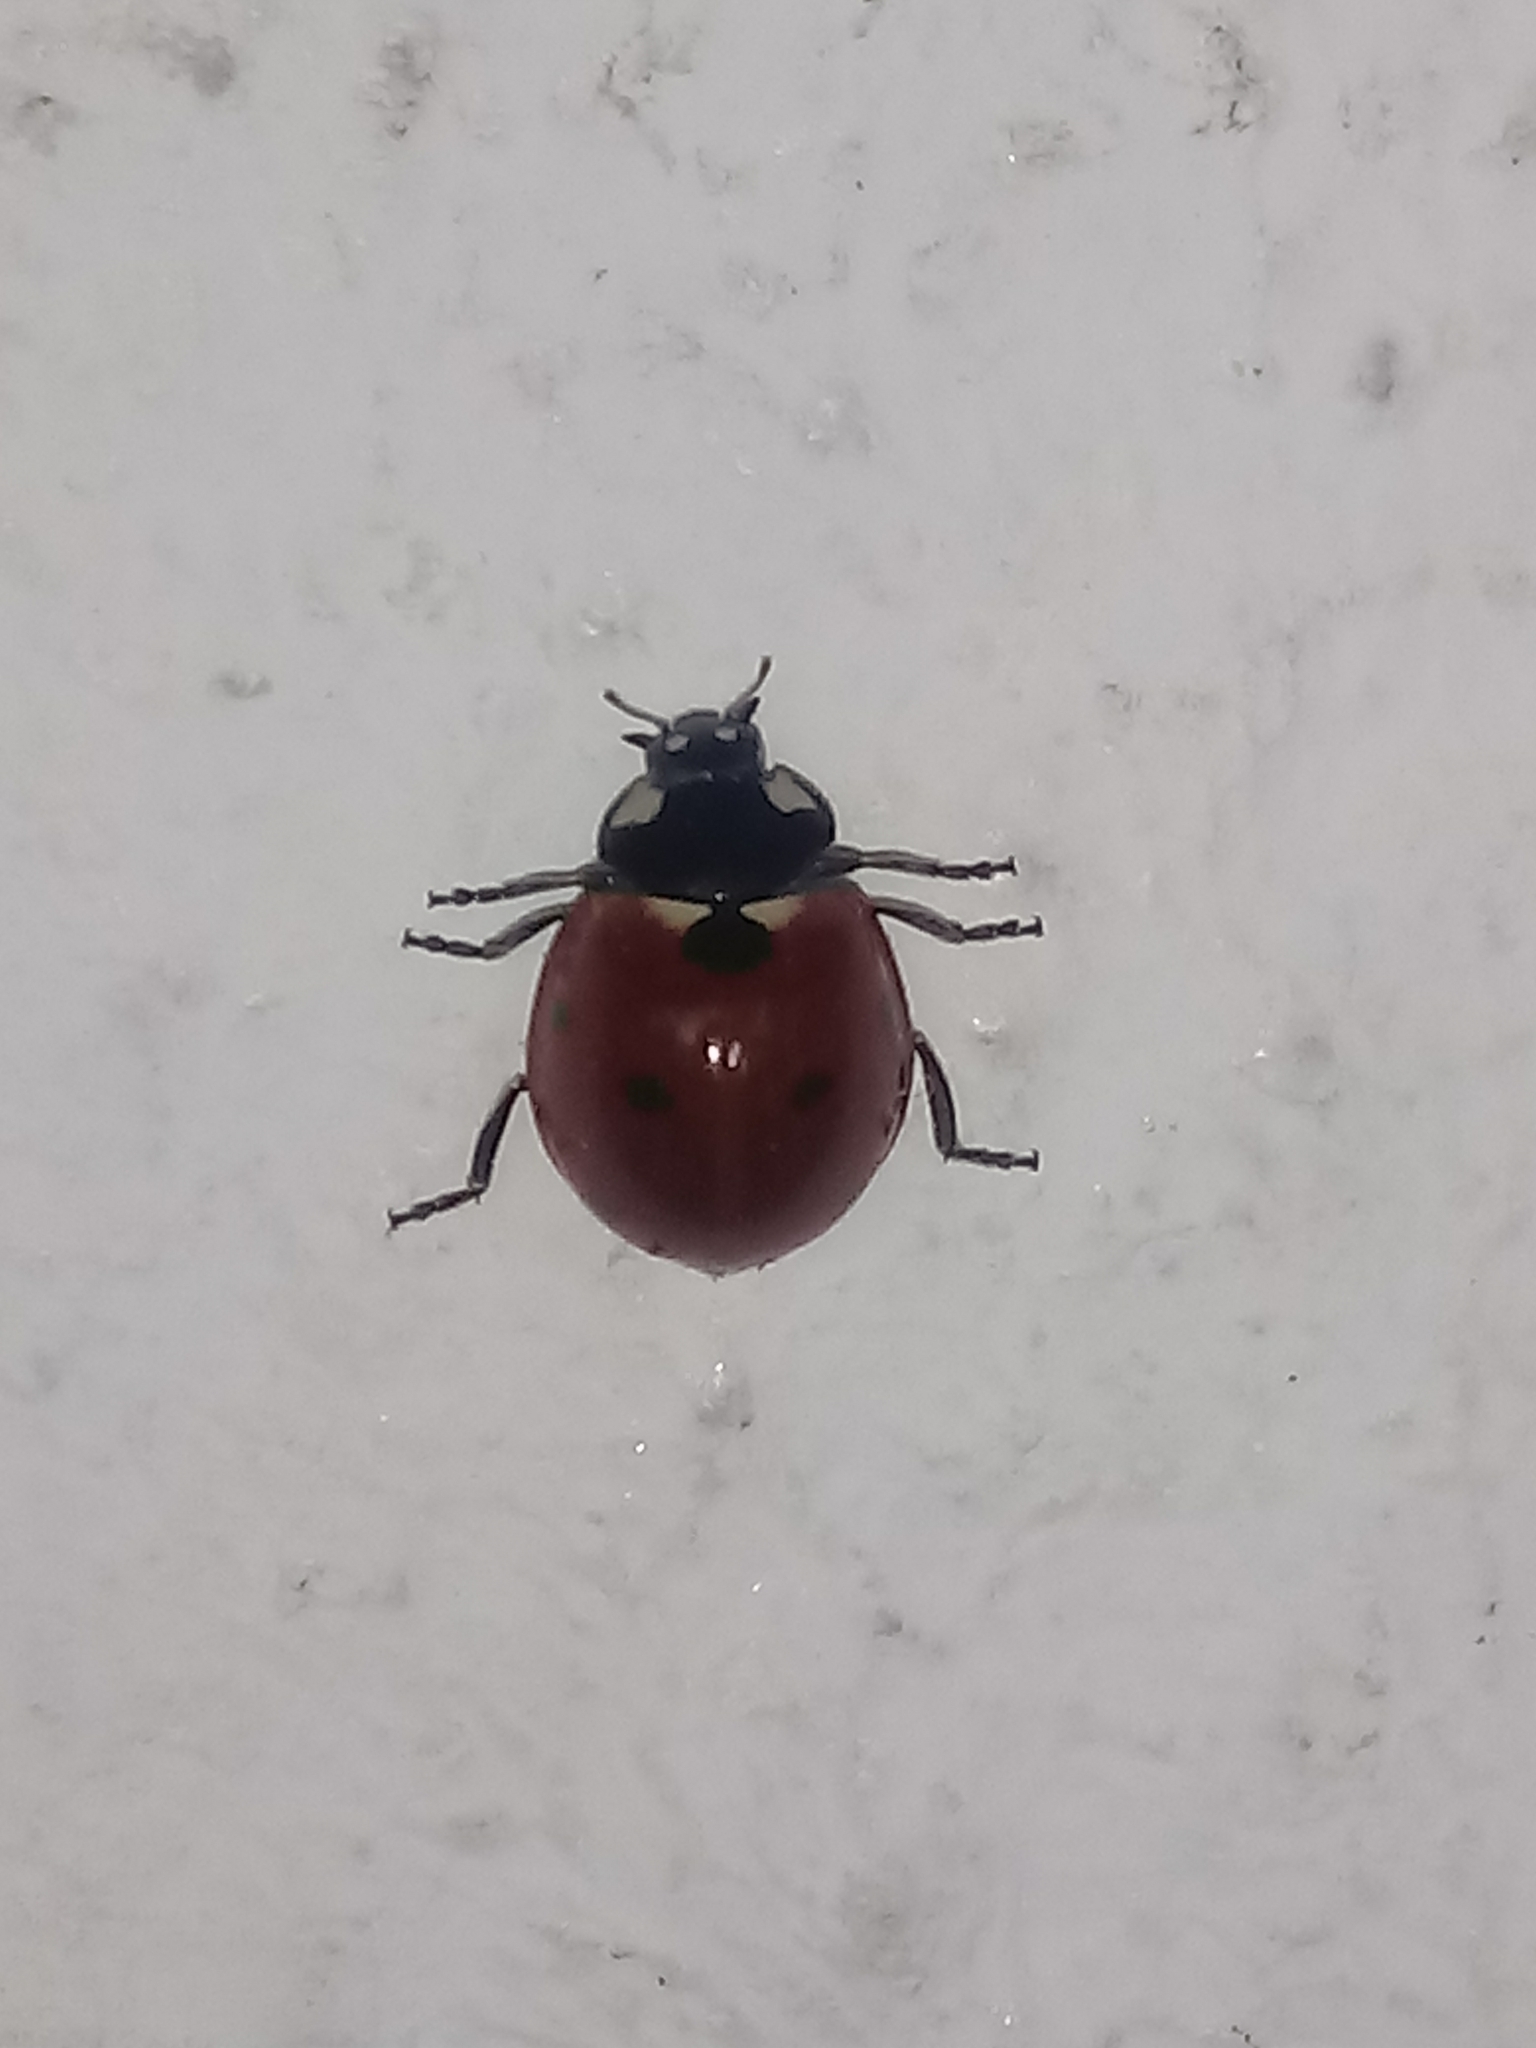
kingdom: Animalia
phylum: Arthropoda
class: Insecta
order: Coleoptera
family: Coccinellidae
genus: Coccinella
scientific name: Coccinella septempunctata
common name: Sevenspotted lady beetle
